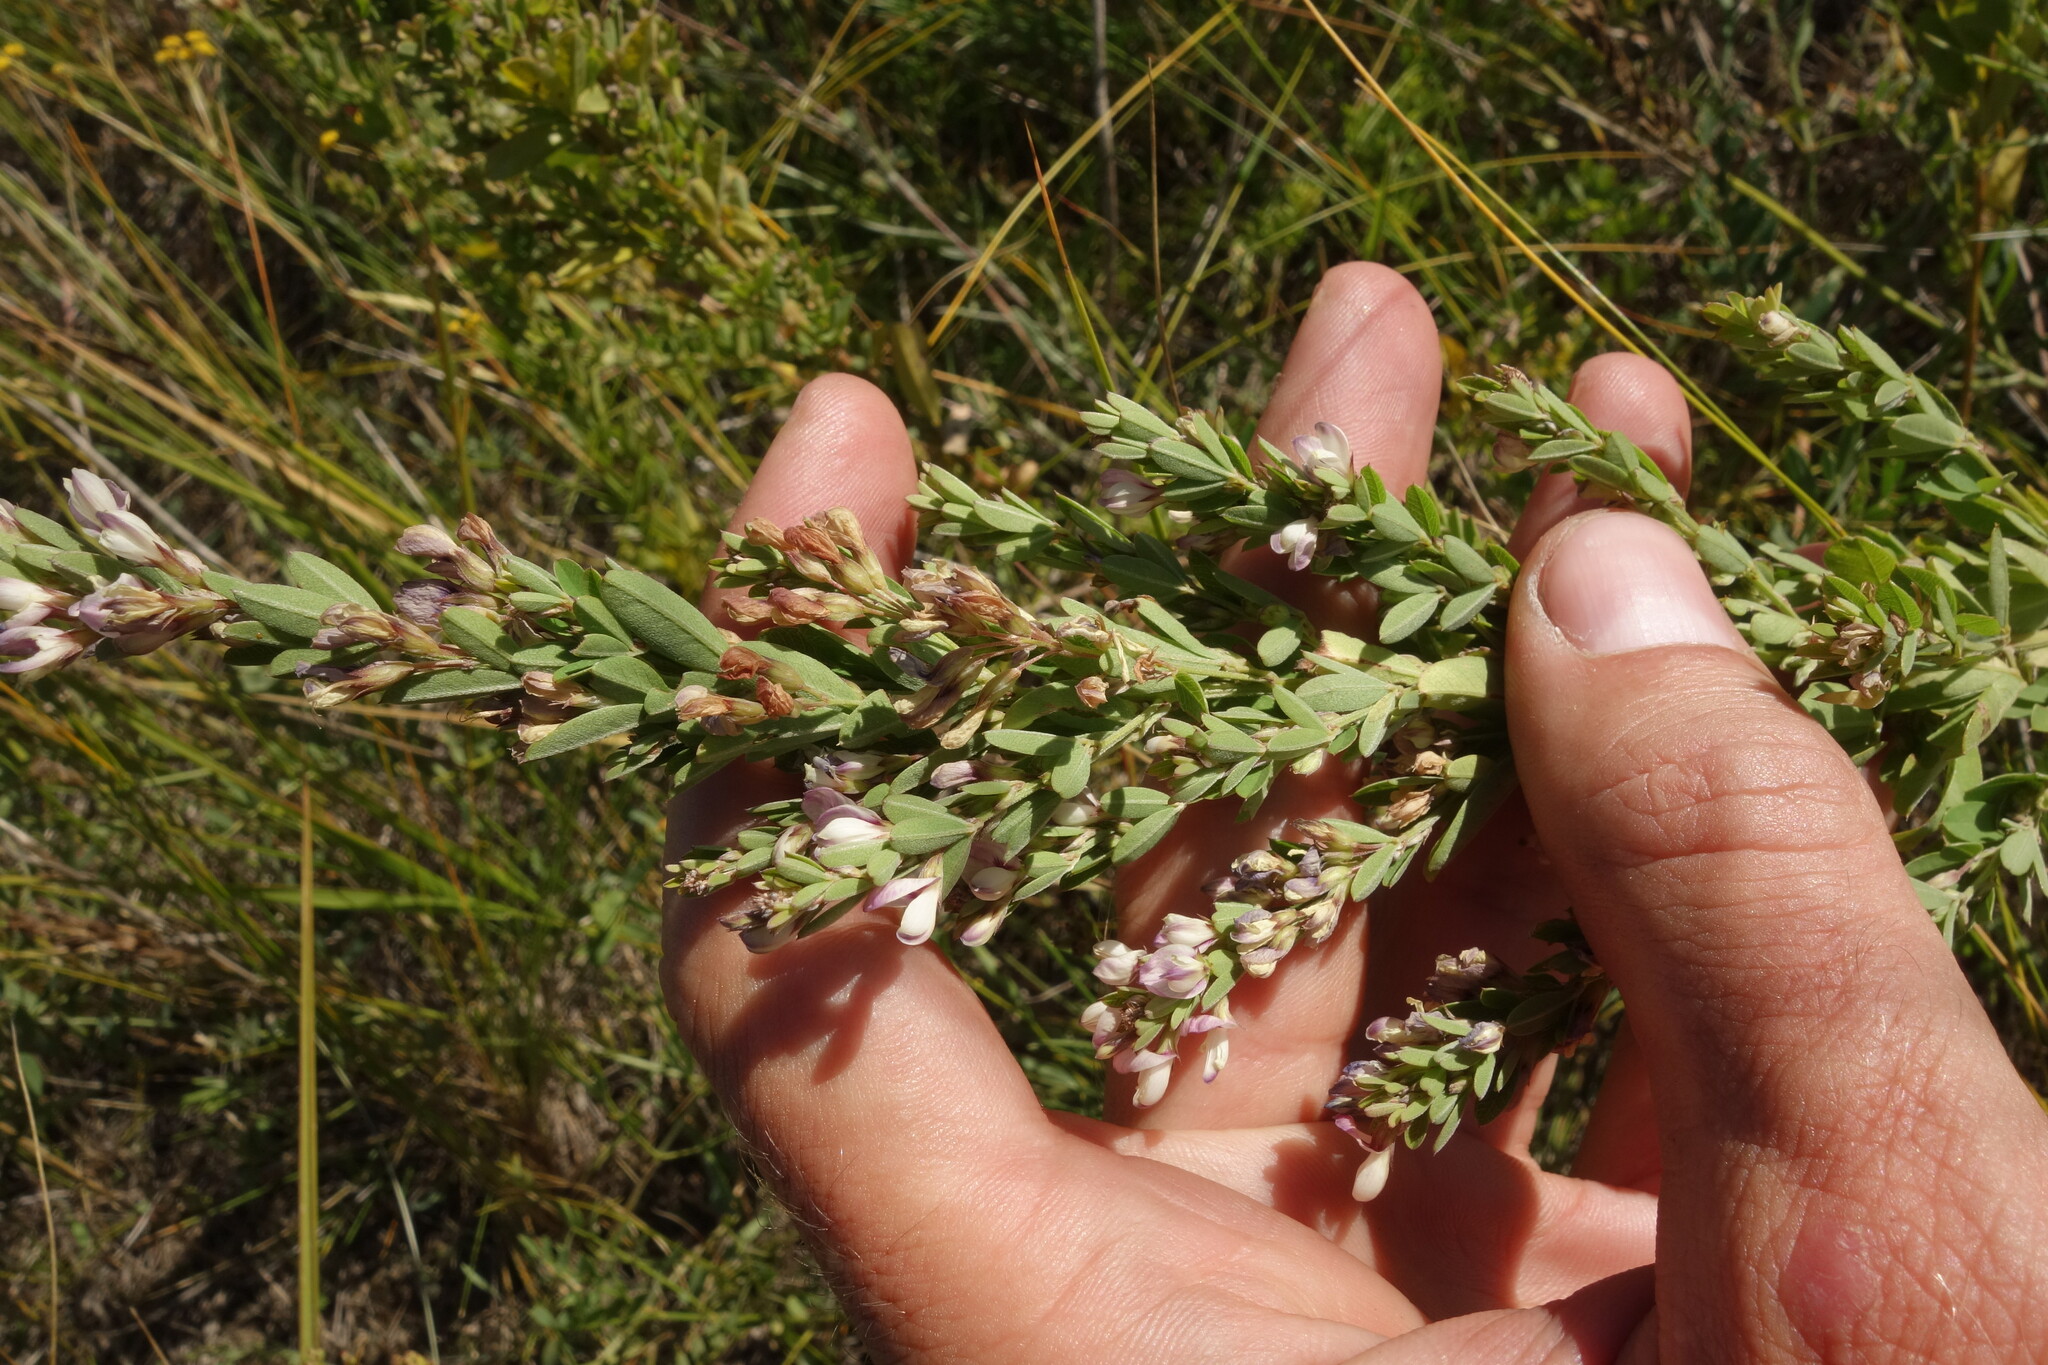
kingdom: Plantae
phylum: Tracheophyta
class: Magnoliopsida
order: Fabales
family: Fabaceae
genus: Lespedeza
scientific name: Lespedeza juncea
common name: Siberian lespedeza
